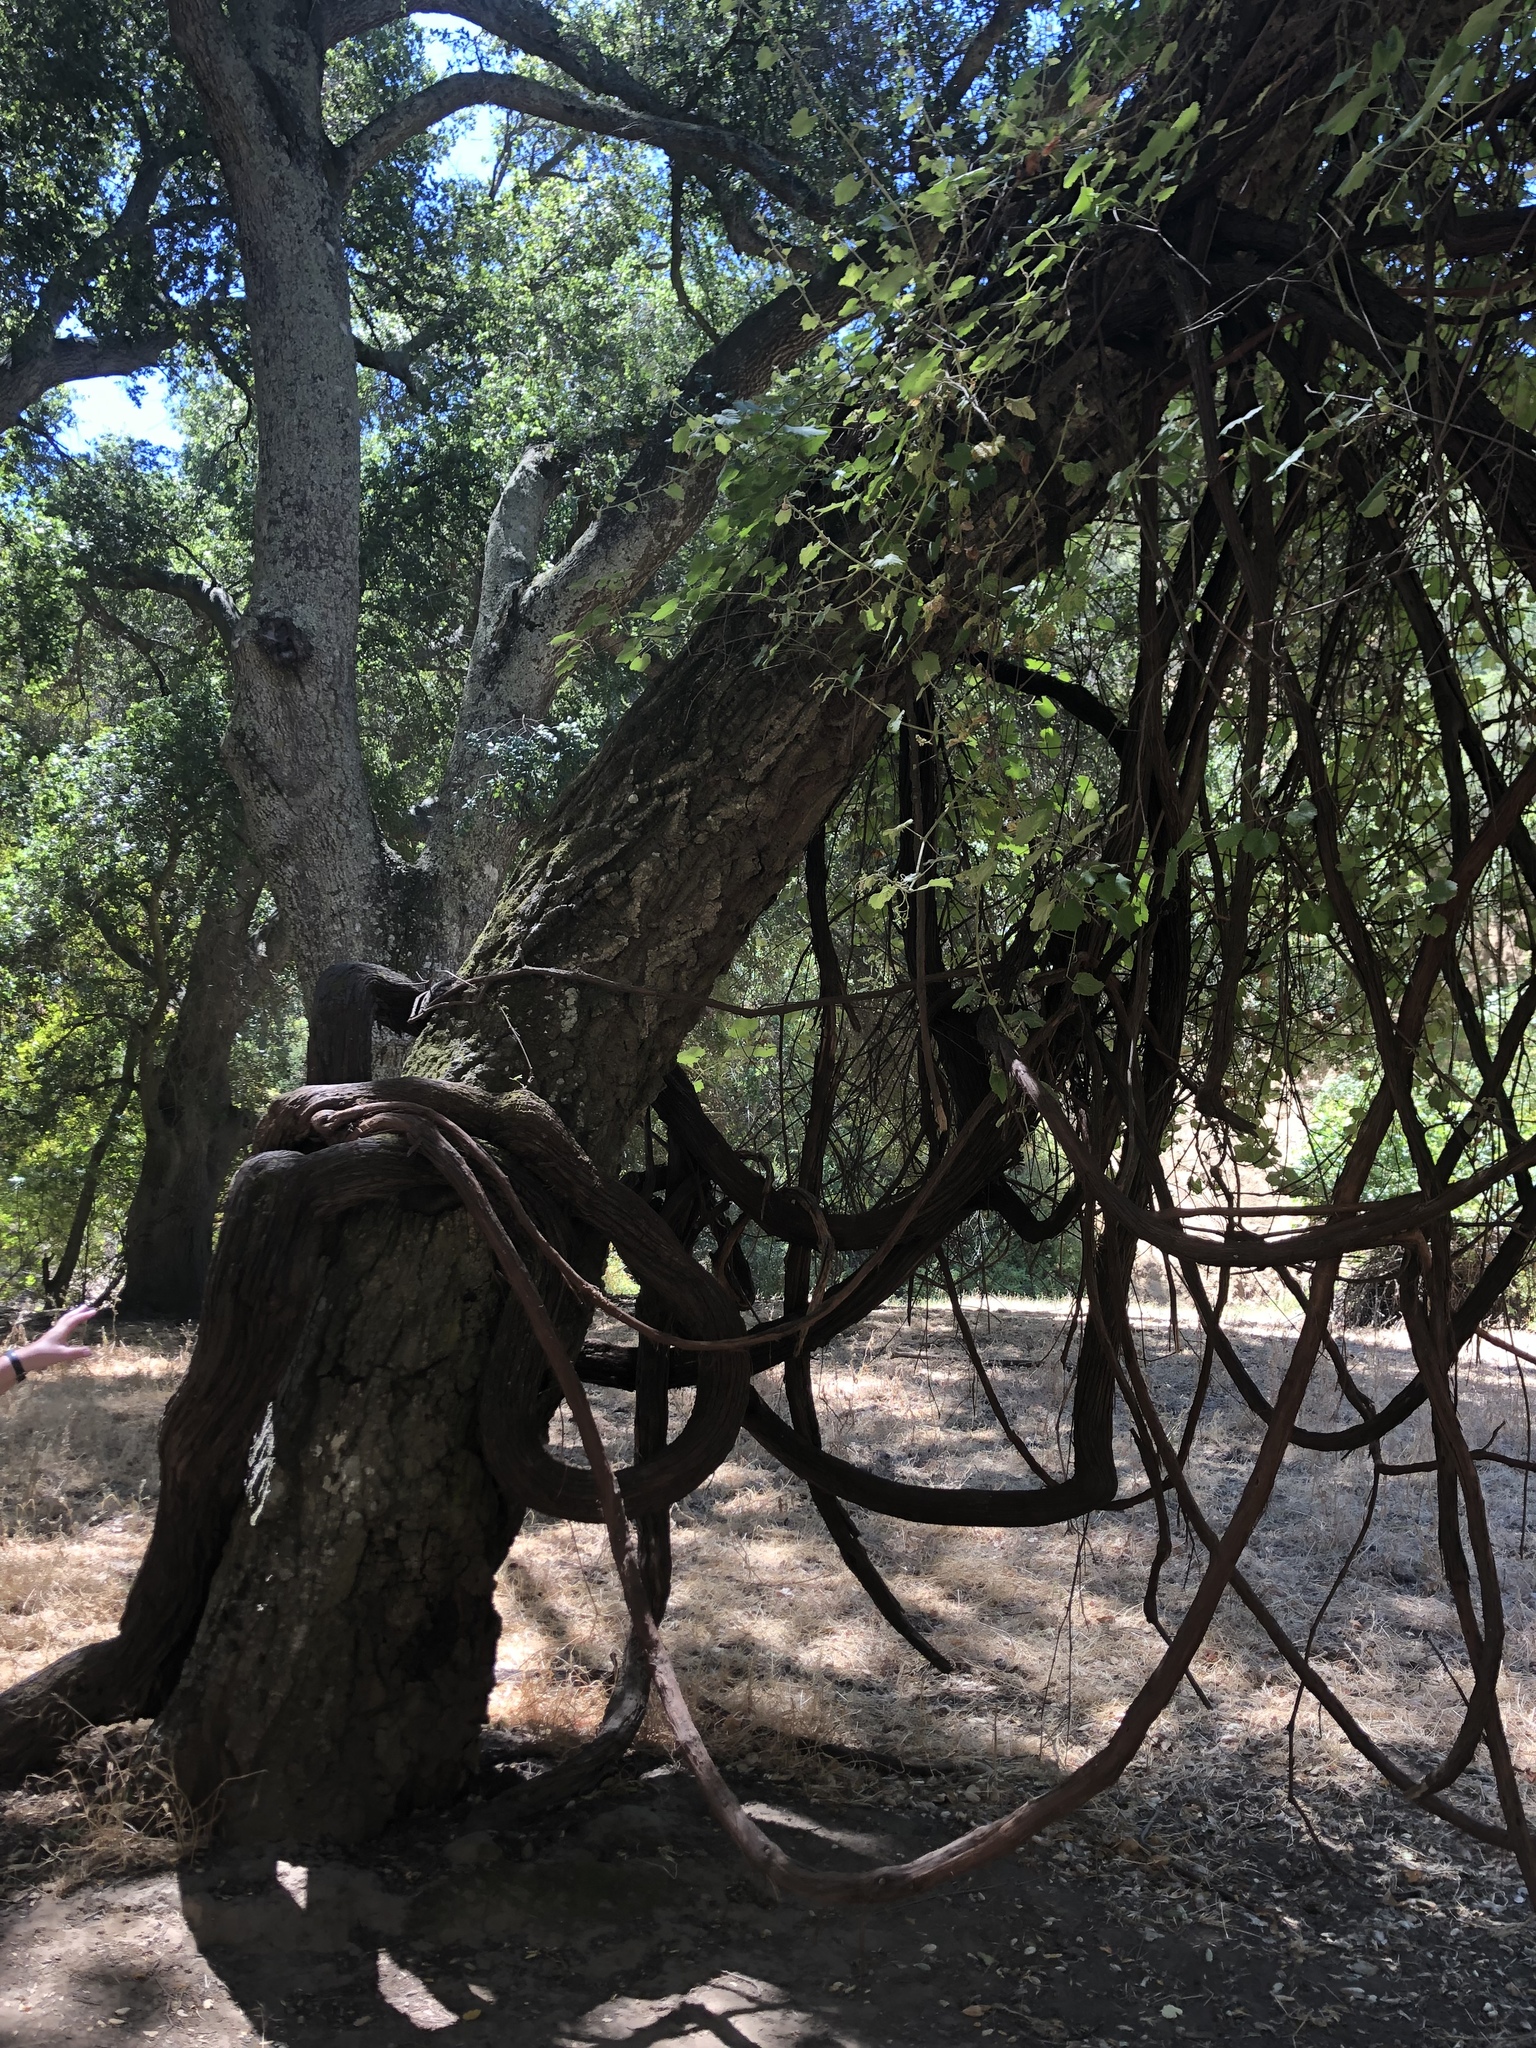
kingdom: Plantae
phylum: Tracheophyta
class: Magnoliopsida
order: Vitales
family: Vitaceae
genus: Vitis
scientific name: Vitis californica
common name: California wild grape
